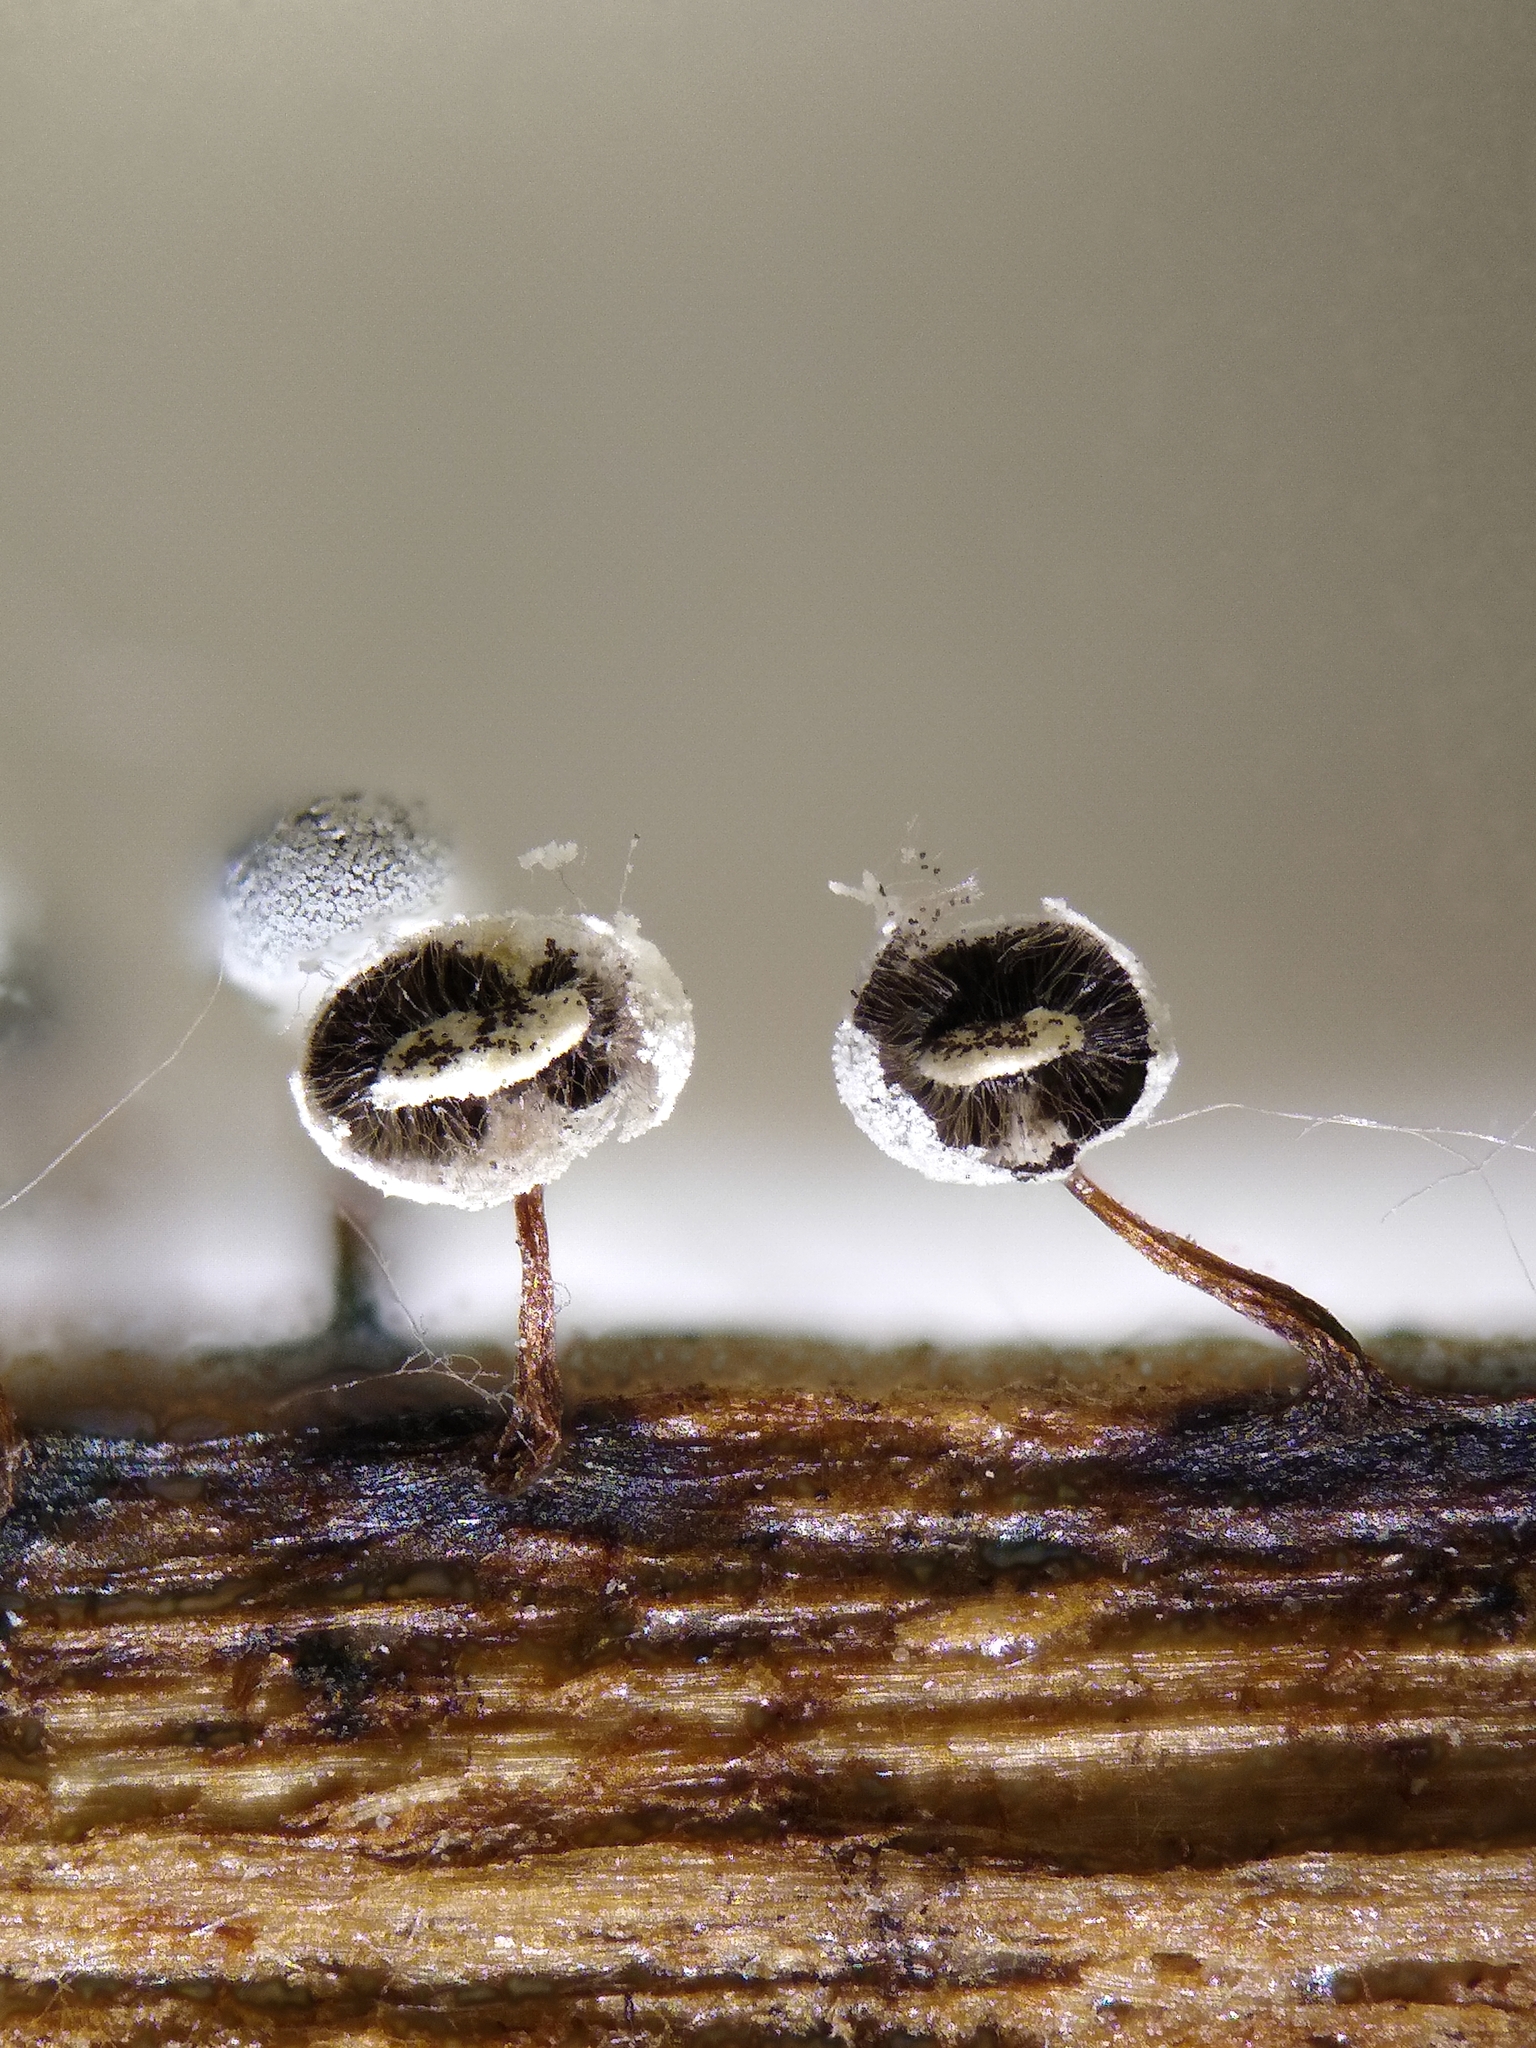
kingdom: Protozoa
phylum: Mycetozoa
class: Myxomycetes
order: Physarales
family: Didymiaceae
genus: Didymium
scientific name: Didymium bahiense
